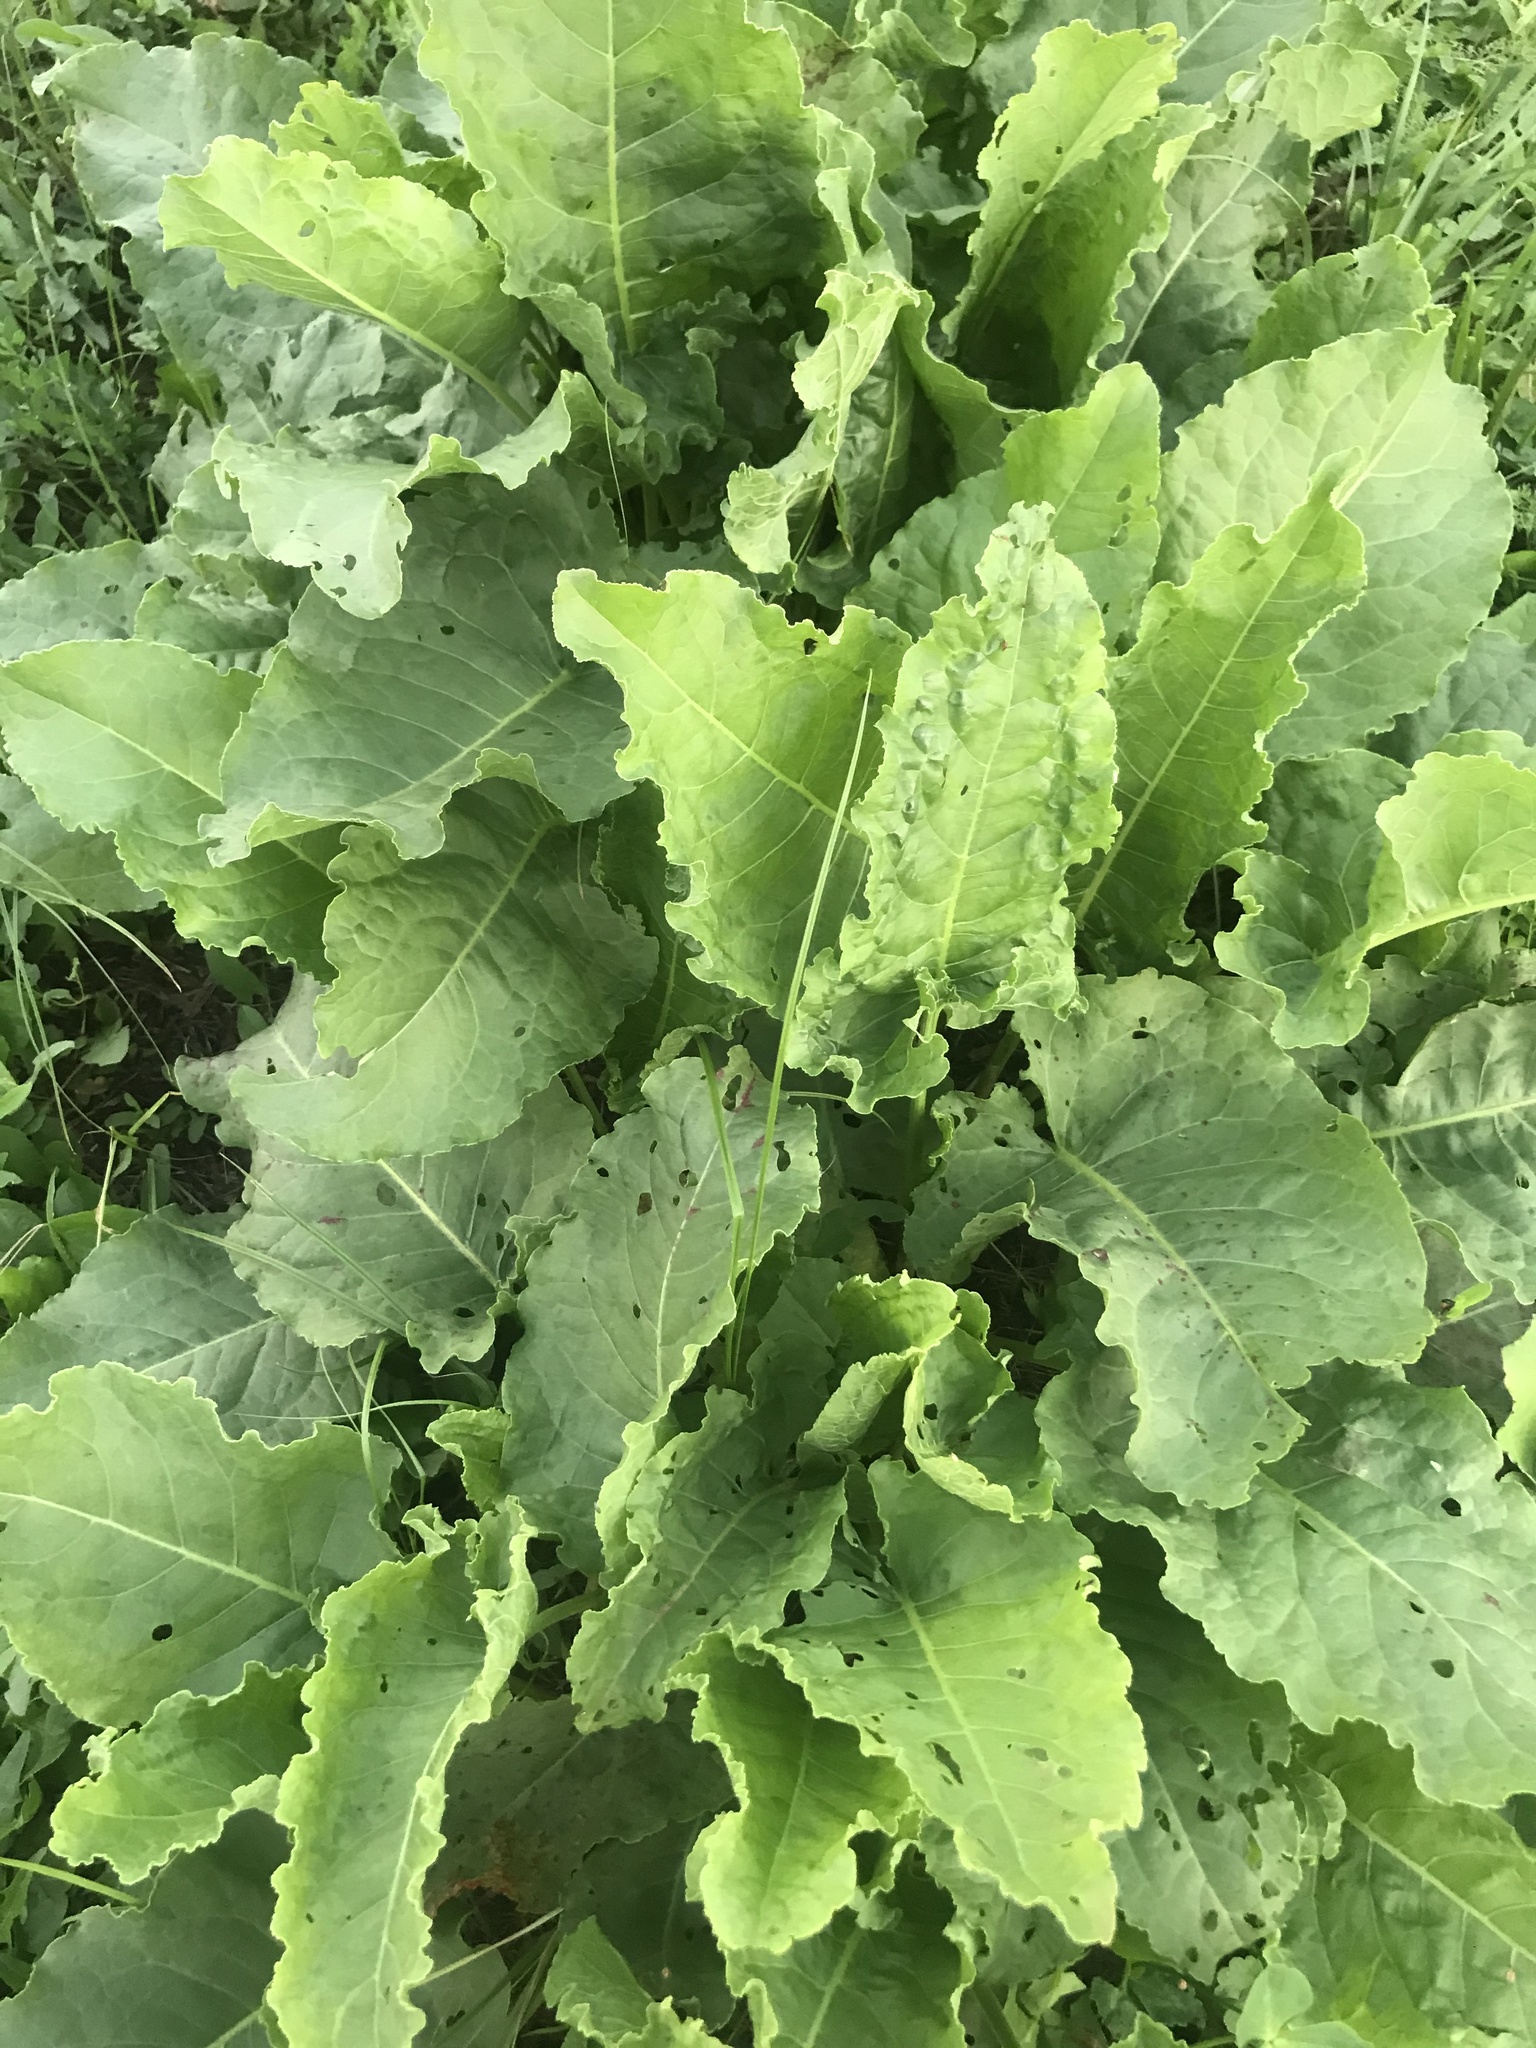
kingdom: Plantae
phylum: Tracheophyta
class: Magnoliopsida
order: Caryophyllales
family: Polygonaceae
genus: Rumex
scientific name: Rumex confertus
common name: Russian dock
